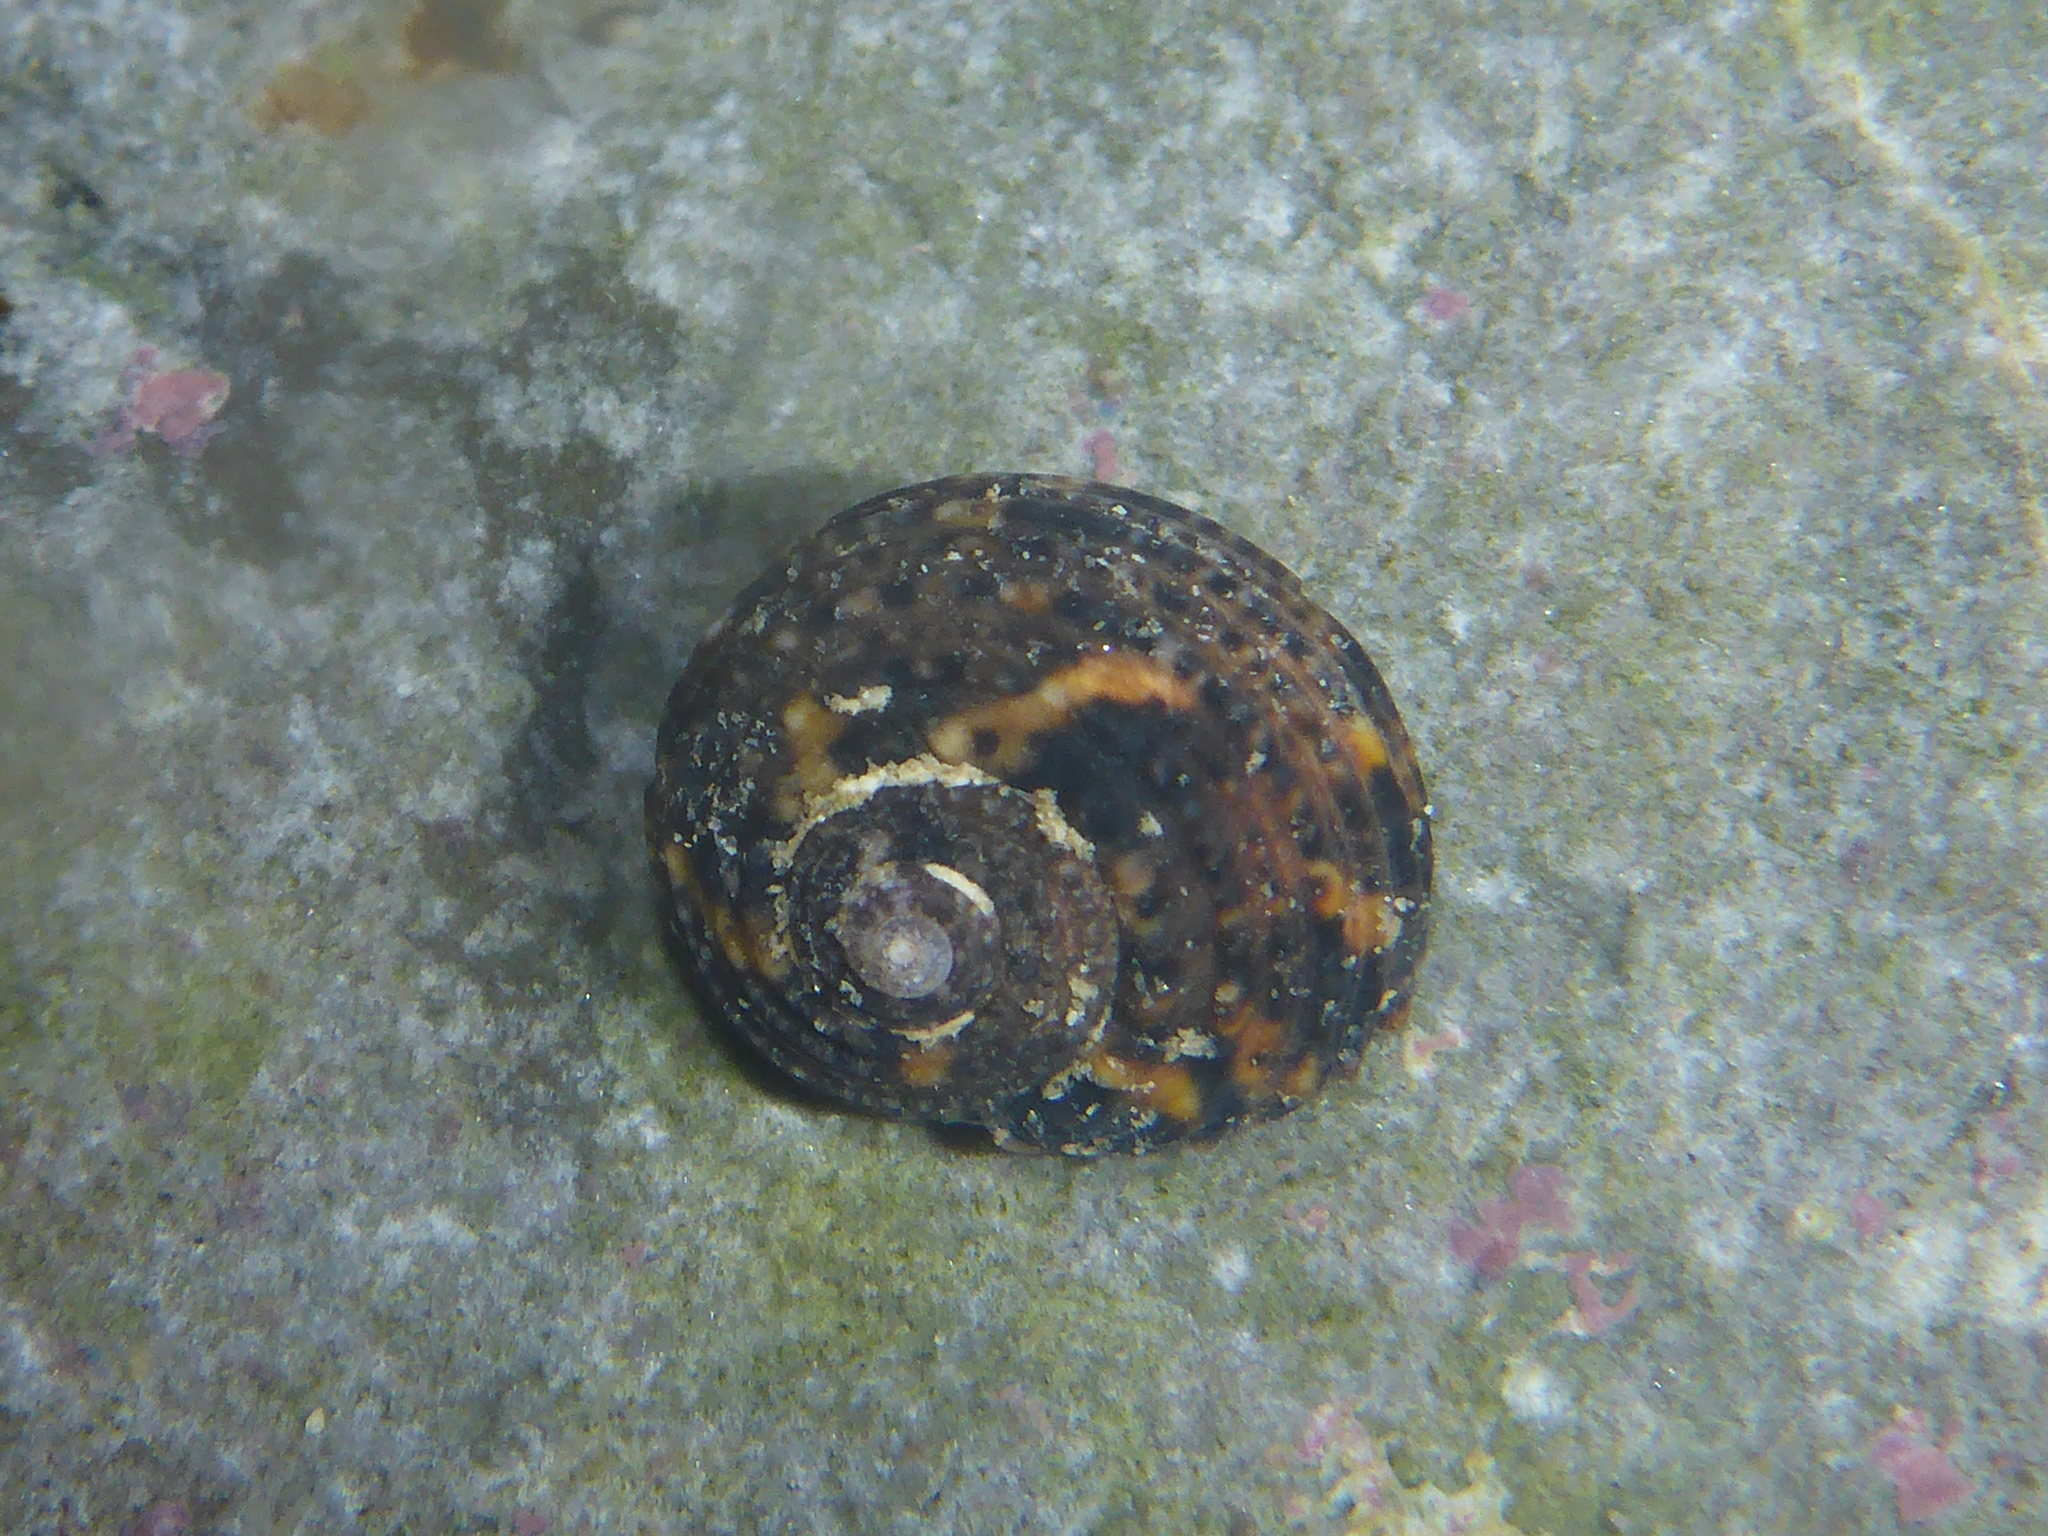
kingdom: Animalia
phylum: Mollusca
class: Gastropoda
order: Trochida
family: Tegulidae
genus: Tegula
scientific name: Tegula eiseni
